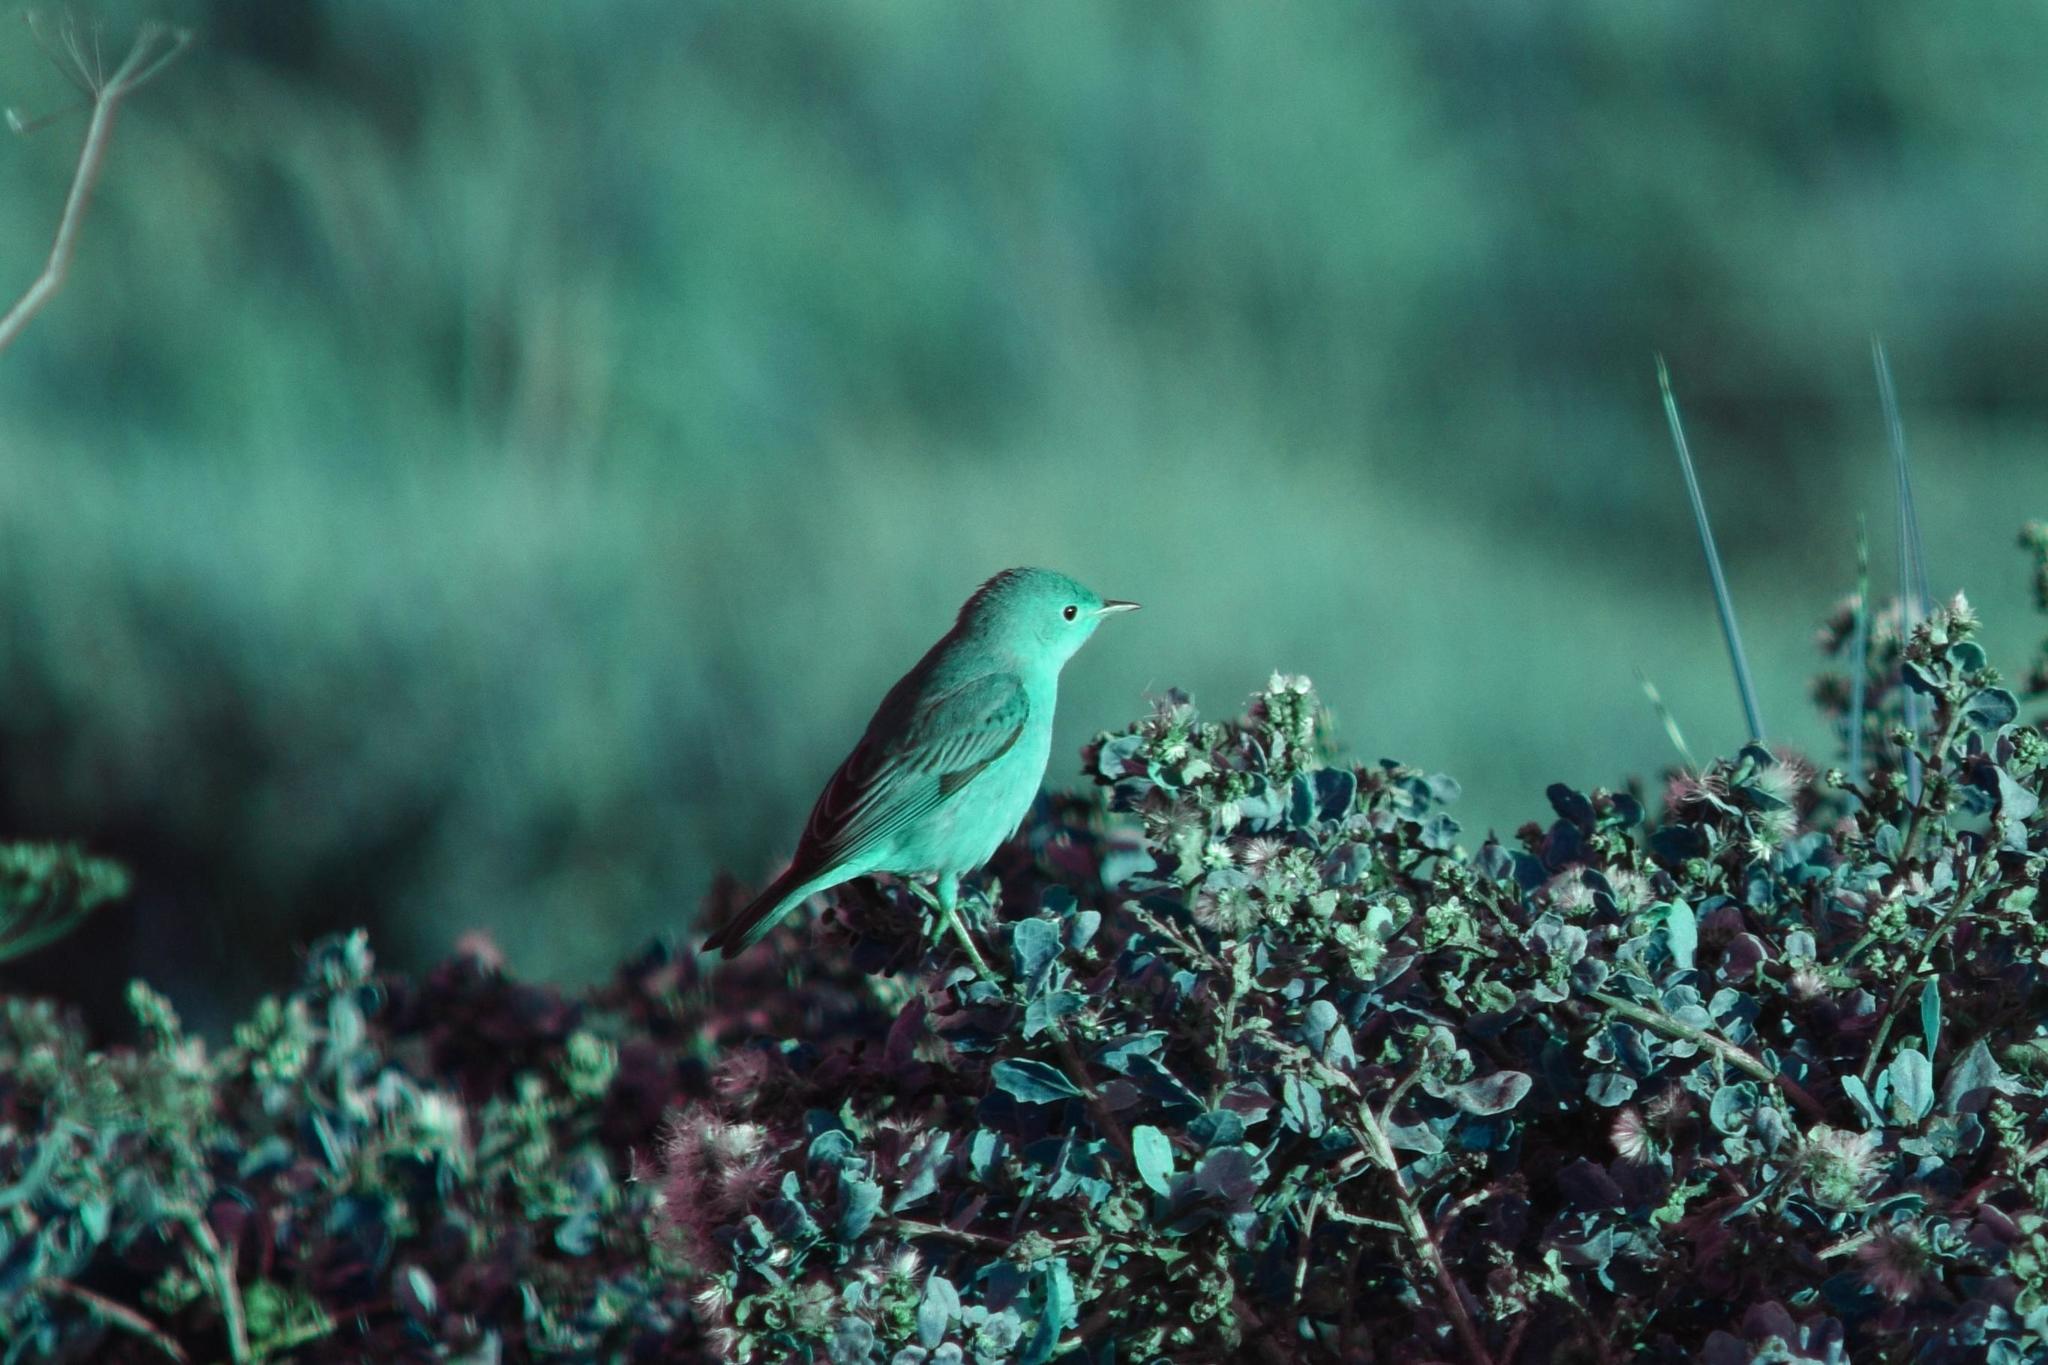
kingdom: Animalia
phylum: Chordata
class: Aves
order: Passeriformes
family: Parulidae
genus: Setophaga
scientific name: Setophaga petechia
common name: Yellow warbler
